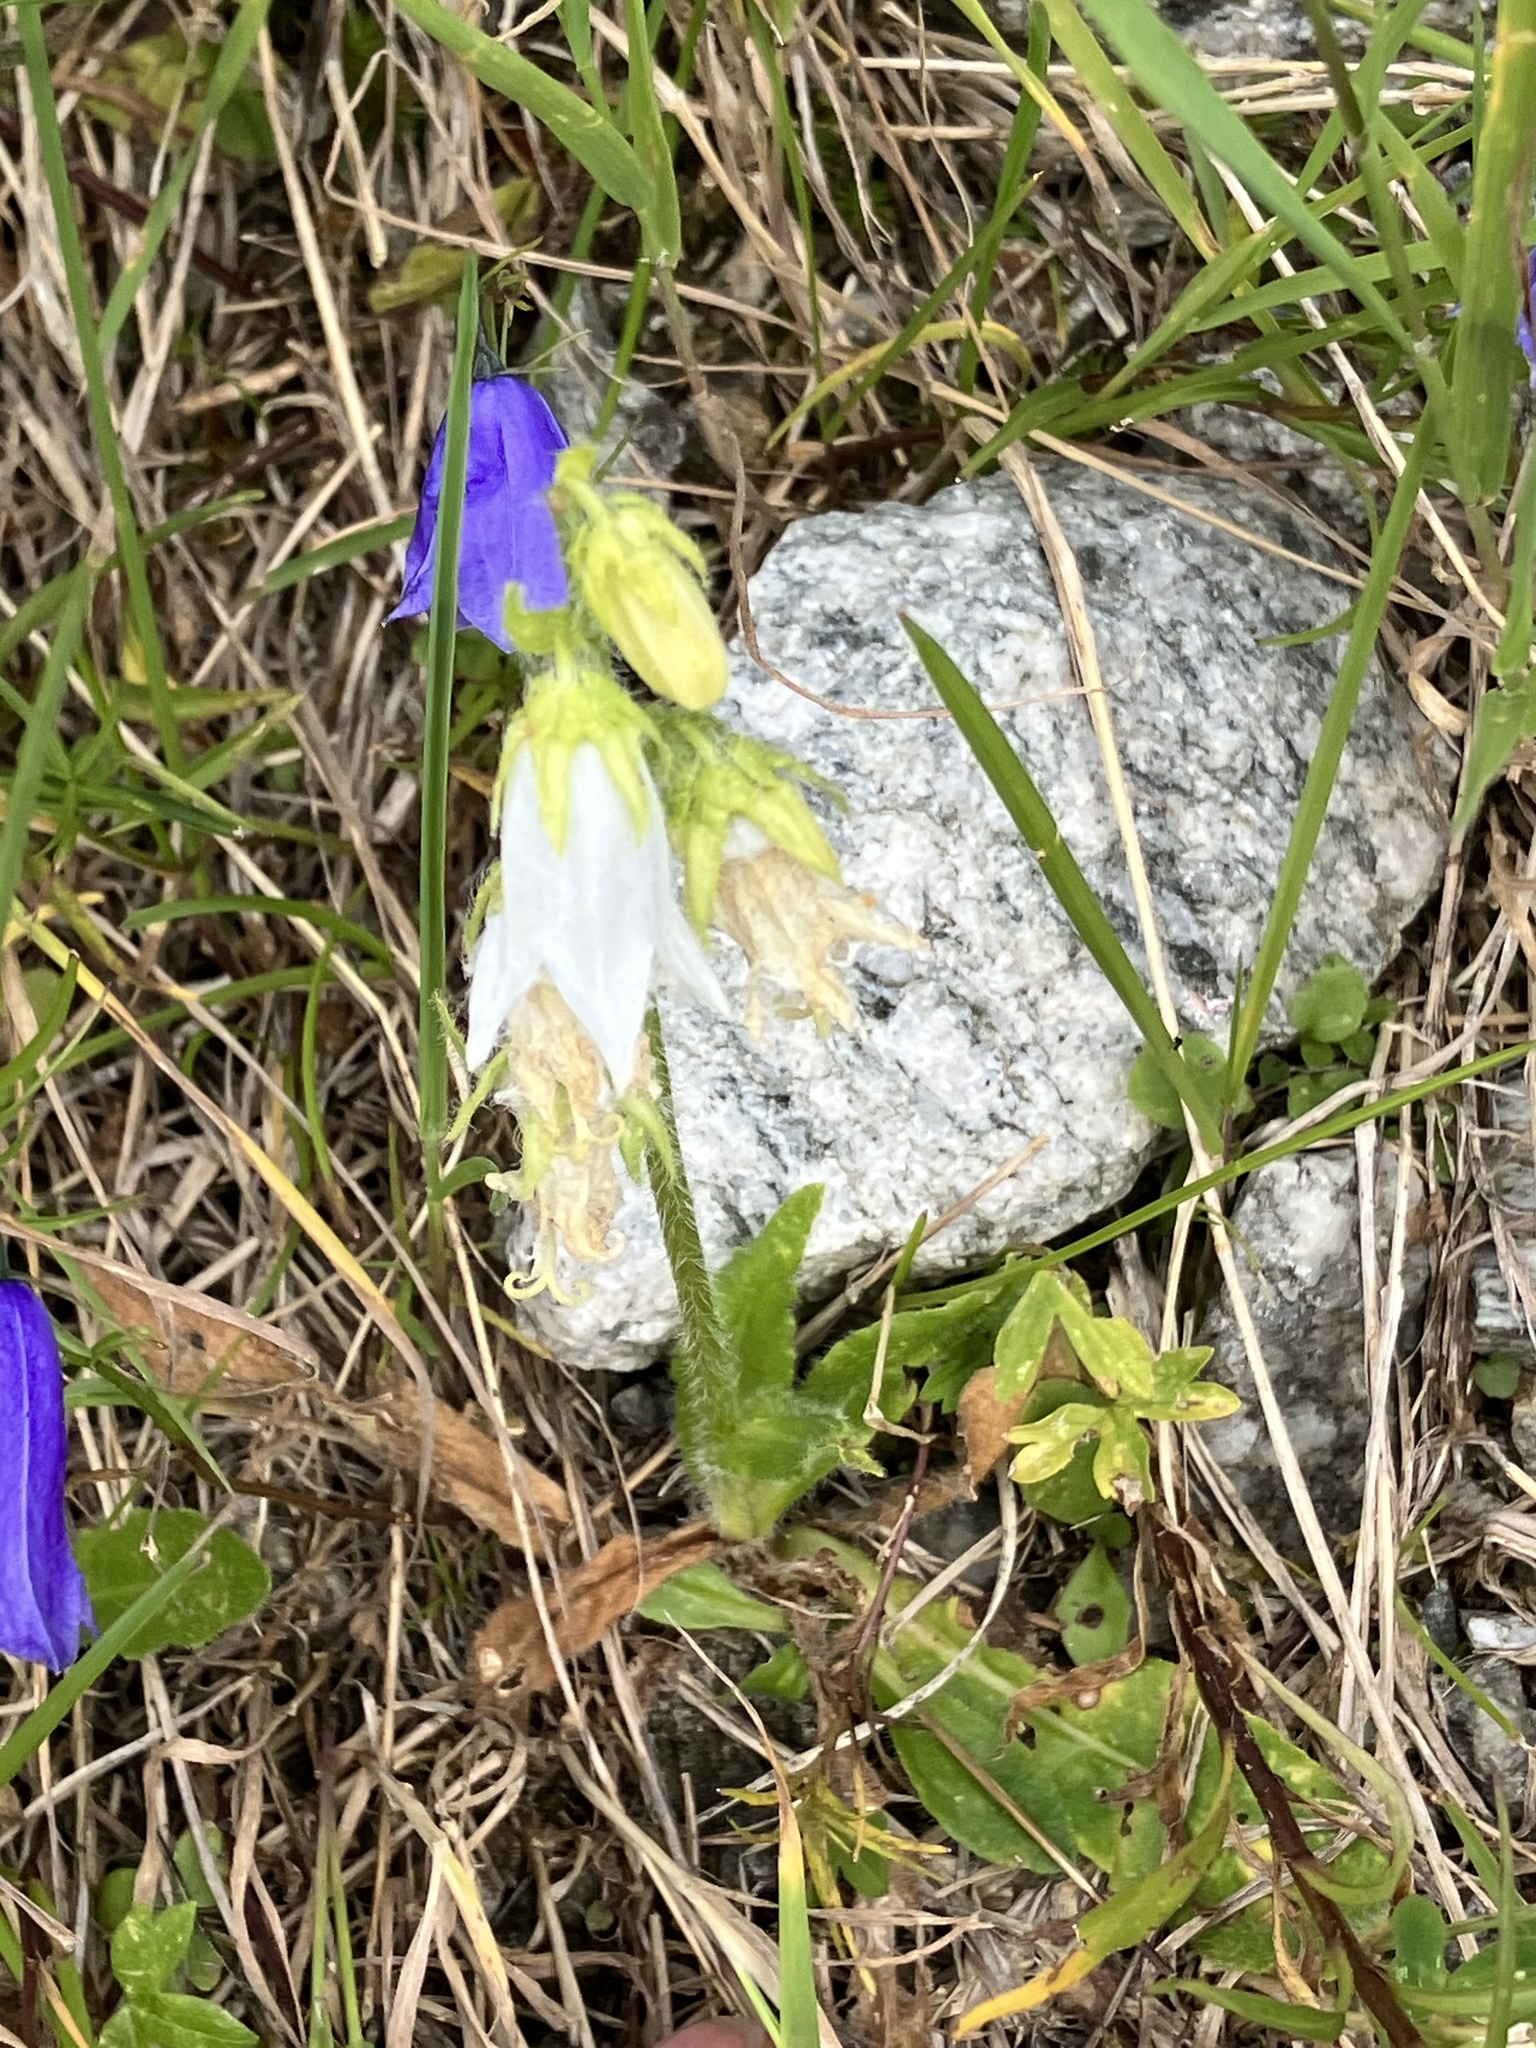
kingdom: Plantae
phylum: Tracheophyta
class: Magnoliopsida
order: Asterales
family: Campanulaceae
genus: Campanula
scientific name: Campanula barbata
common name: Bearded bellflower
